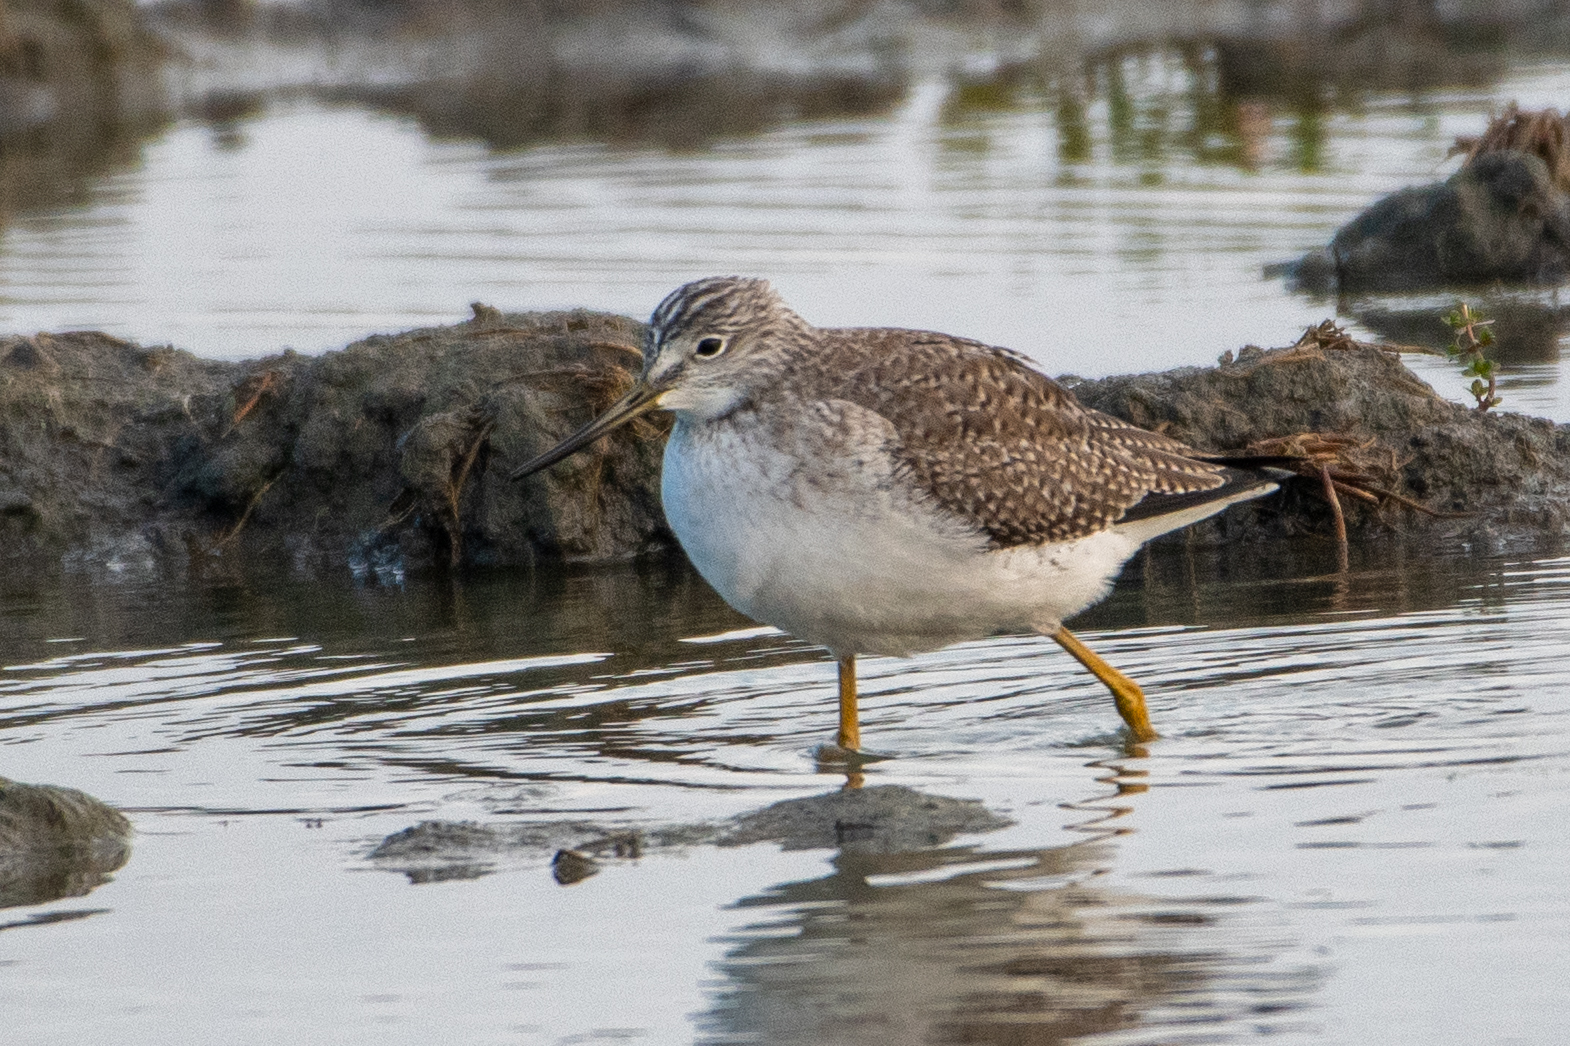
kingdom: Animalia
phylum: Chordata
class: Aves
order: Charadriiformes
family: Scolopacidae
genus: Tringa
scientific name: Tringa melanoleuca
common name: Greater yellowlegs
